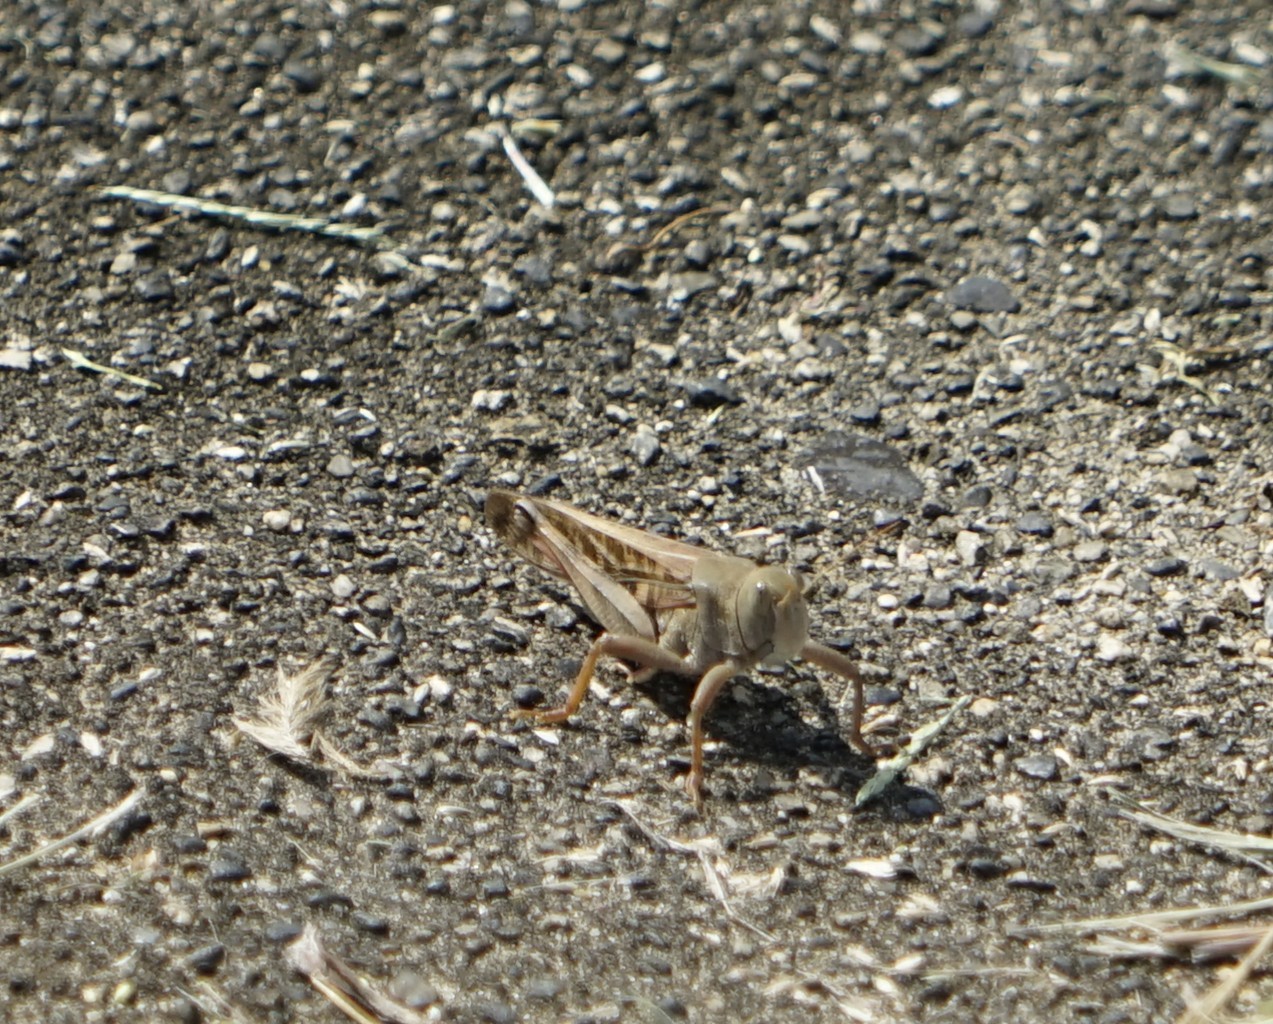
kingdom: Animalia
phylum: Arthropoda
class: Insecta
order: Orthoptera
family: Acrididae
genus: Locusta
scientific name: Locusta migratoria
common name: Migratory locust
